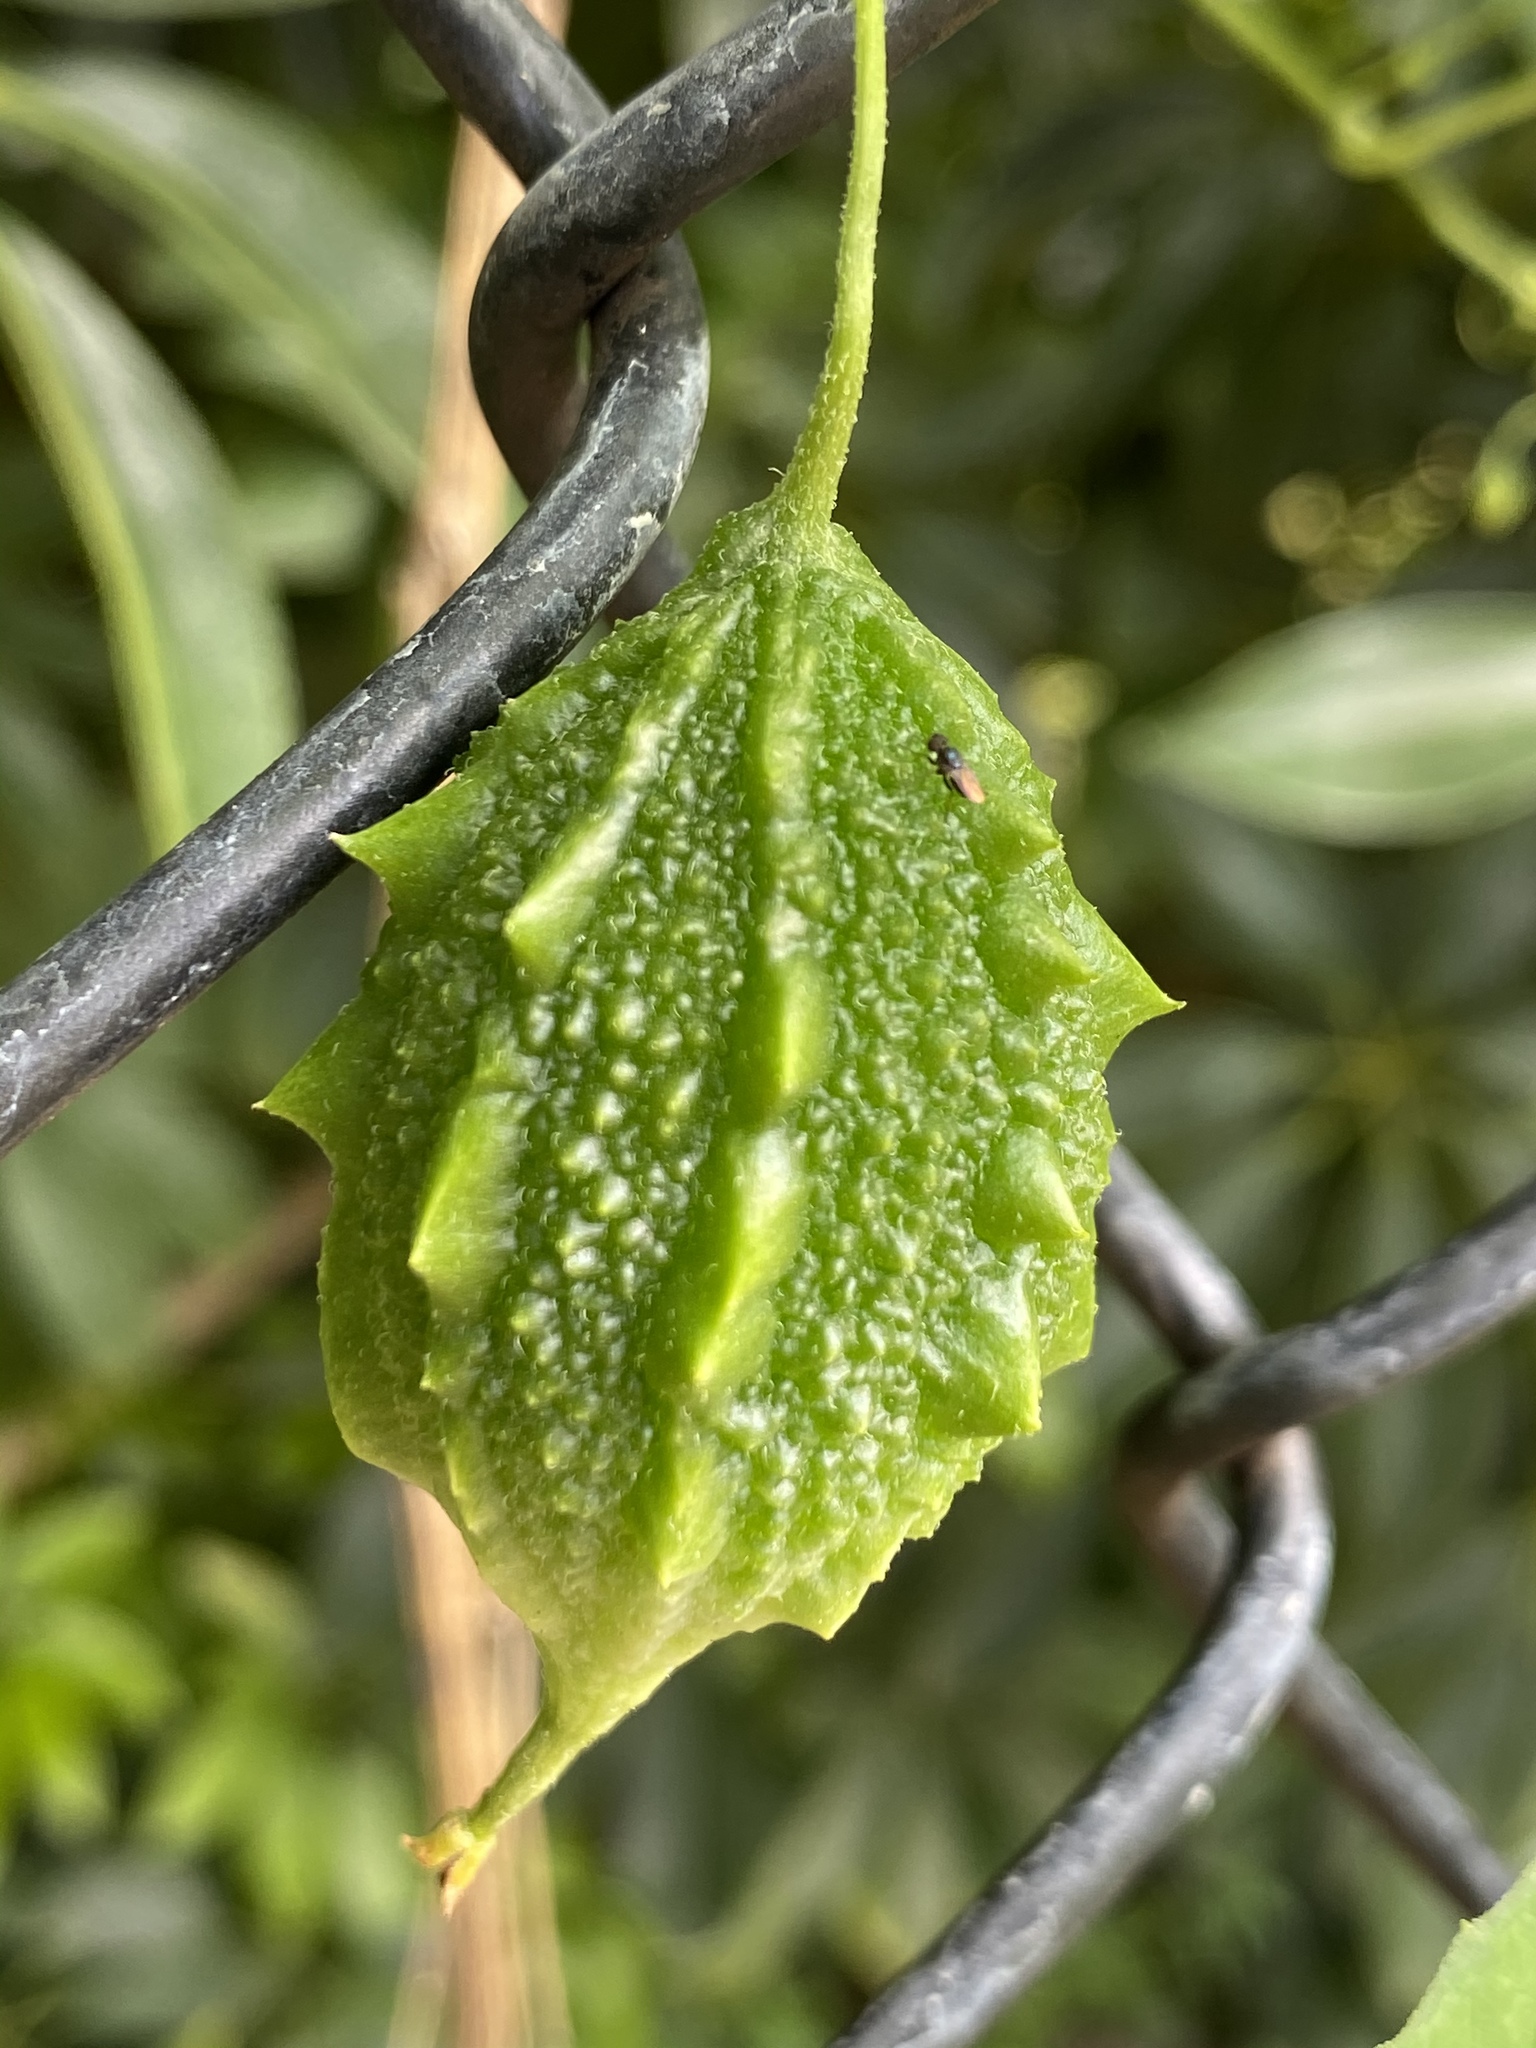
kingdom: Plantae
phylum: Tracheophyta
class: Magnoliopsida
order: Cucurbitales
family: Cucurbitaceae
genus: Momordica
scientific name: Momordica charantia
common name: Balsampear
